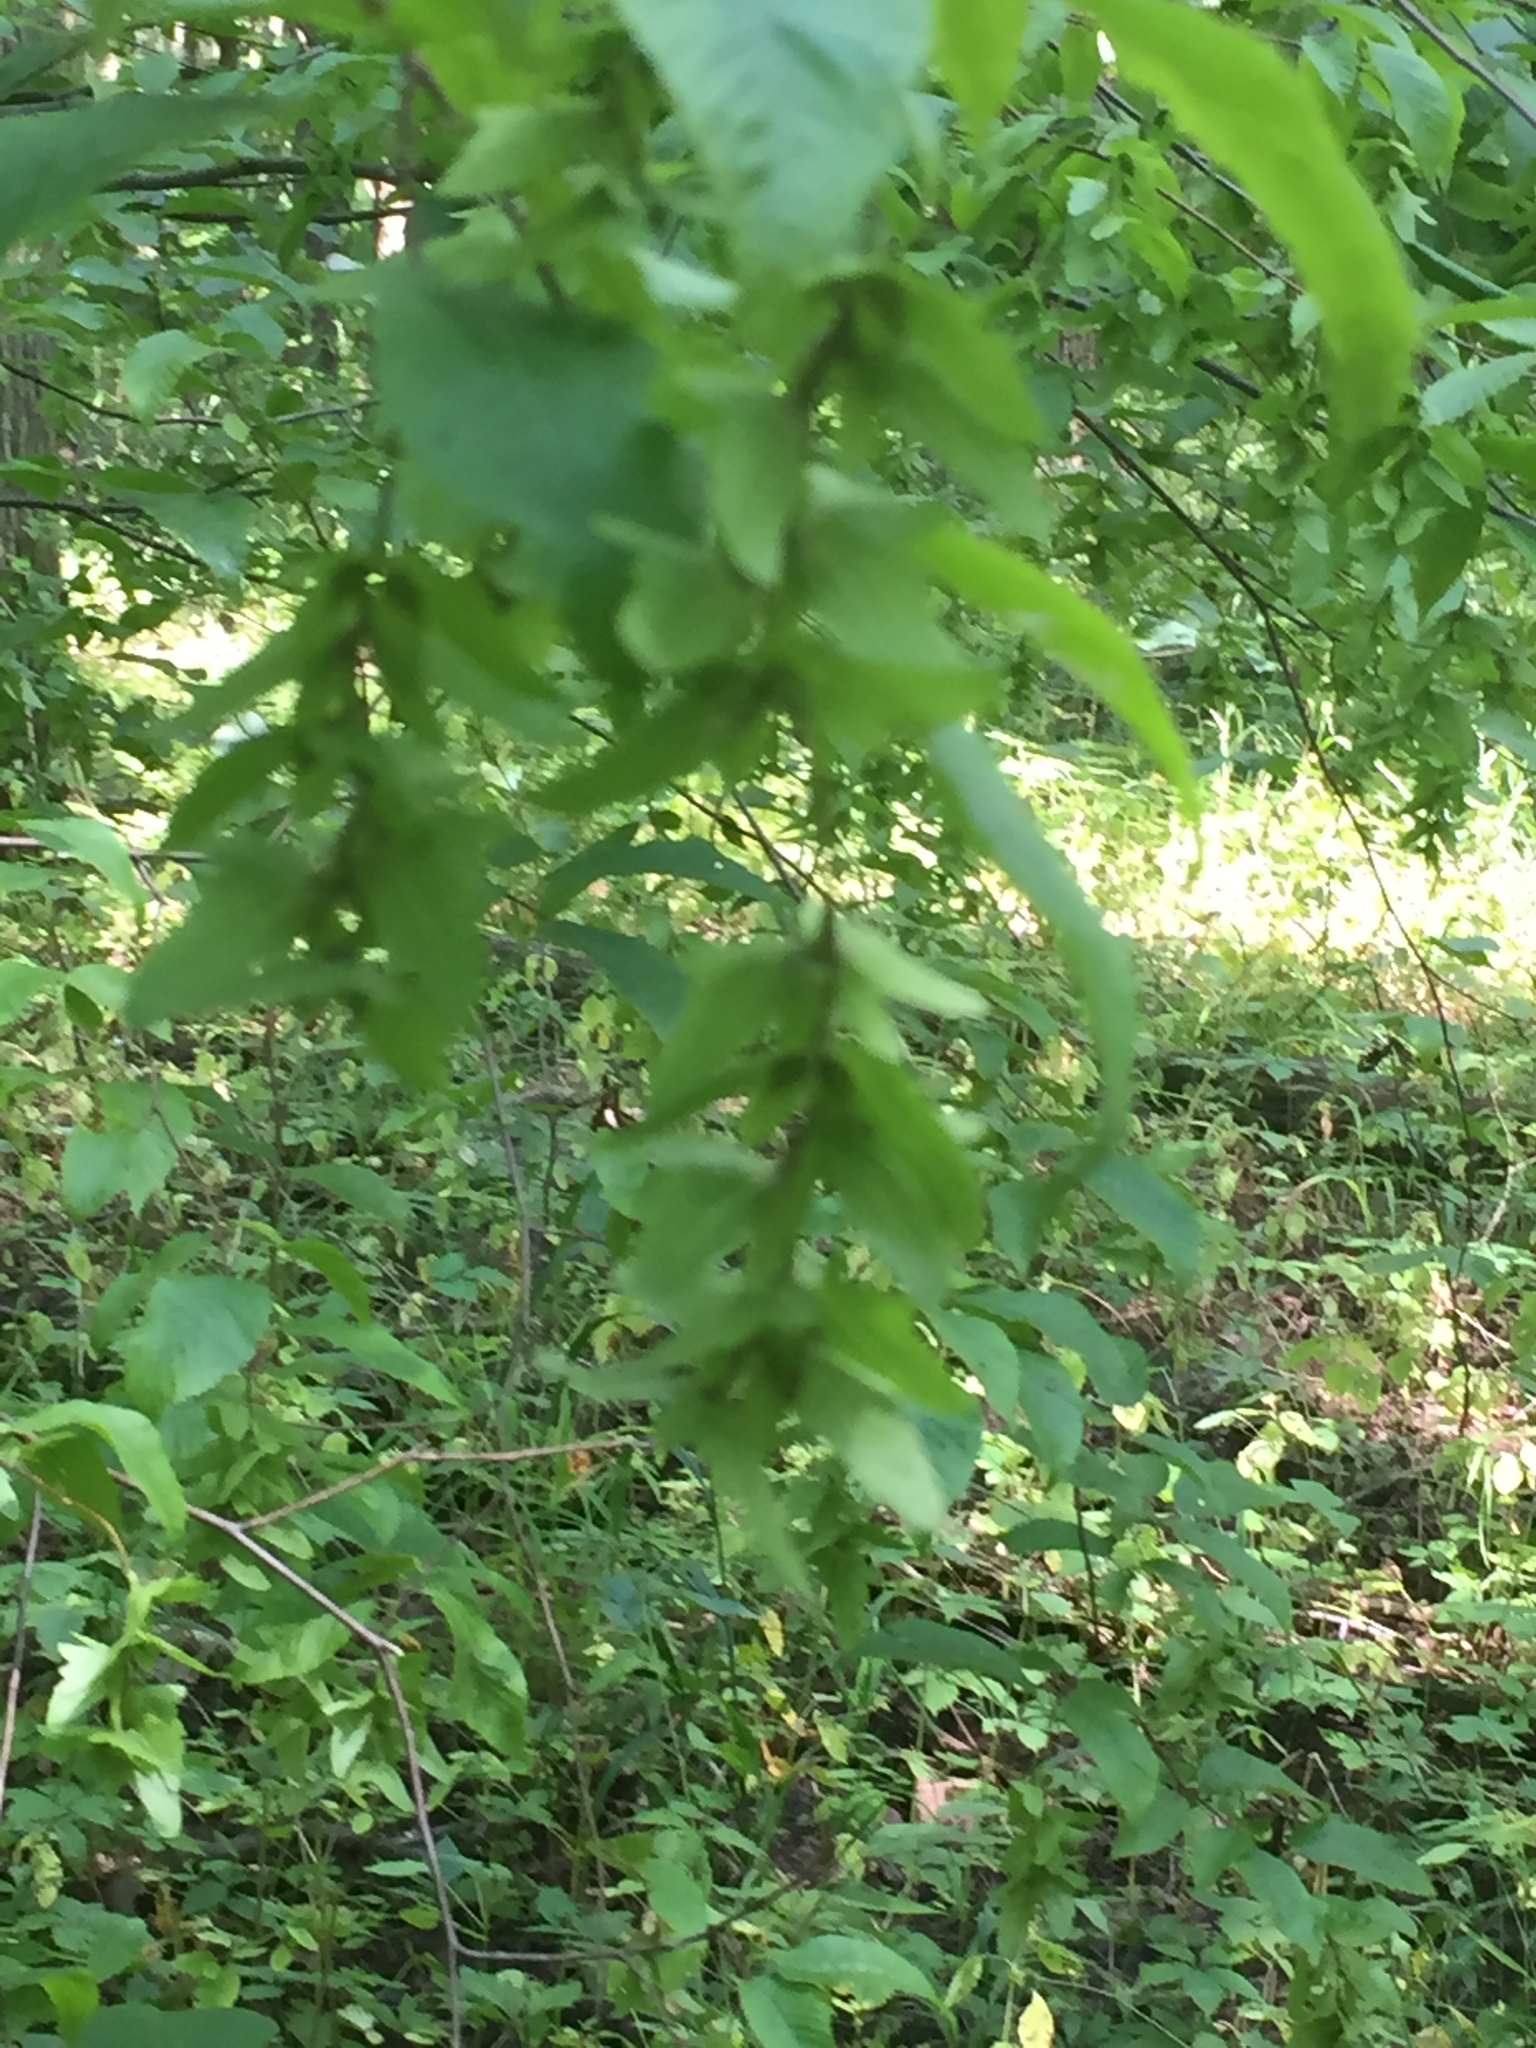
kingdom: Plantae
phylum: Tracheophyta
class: Magnoliopsida
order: Fagales
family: Betulaceae
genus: Carpinus
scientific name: Carpinus caroliniana
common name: American hornbeam
